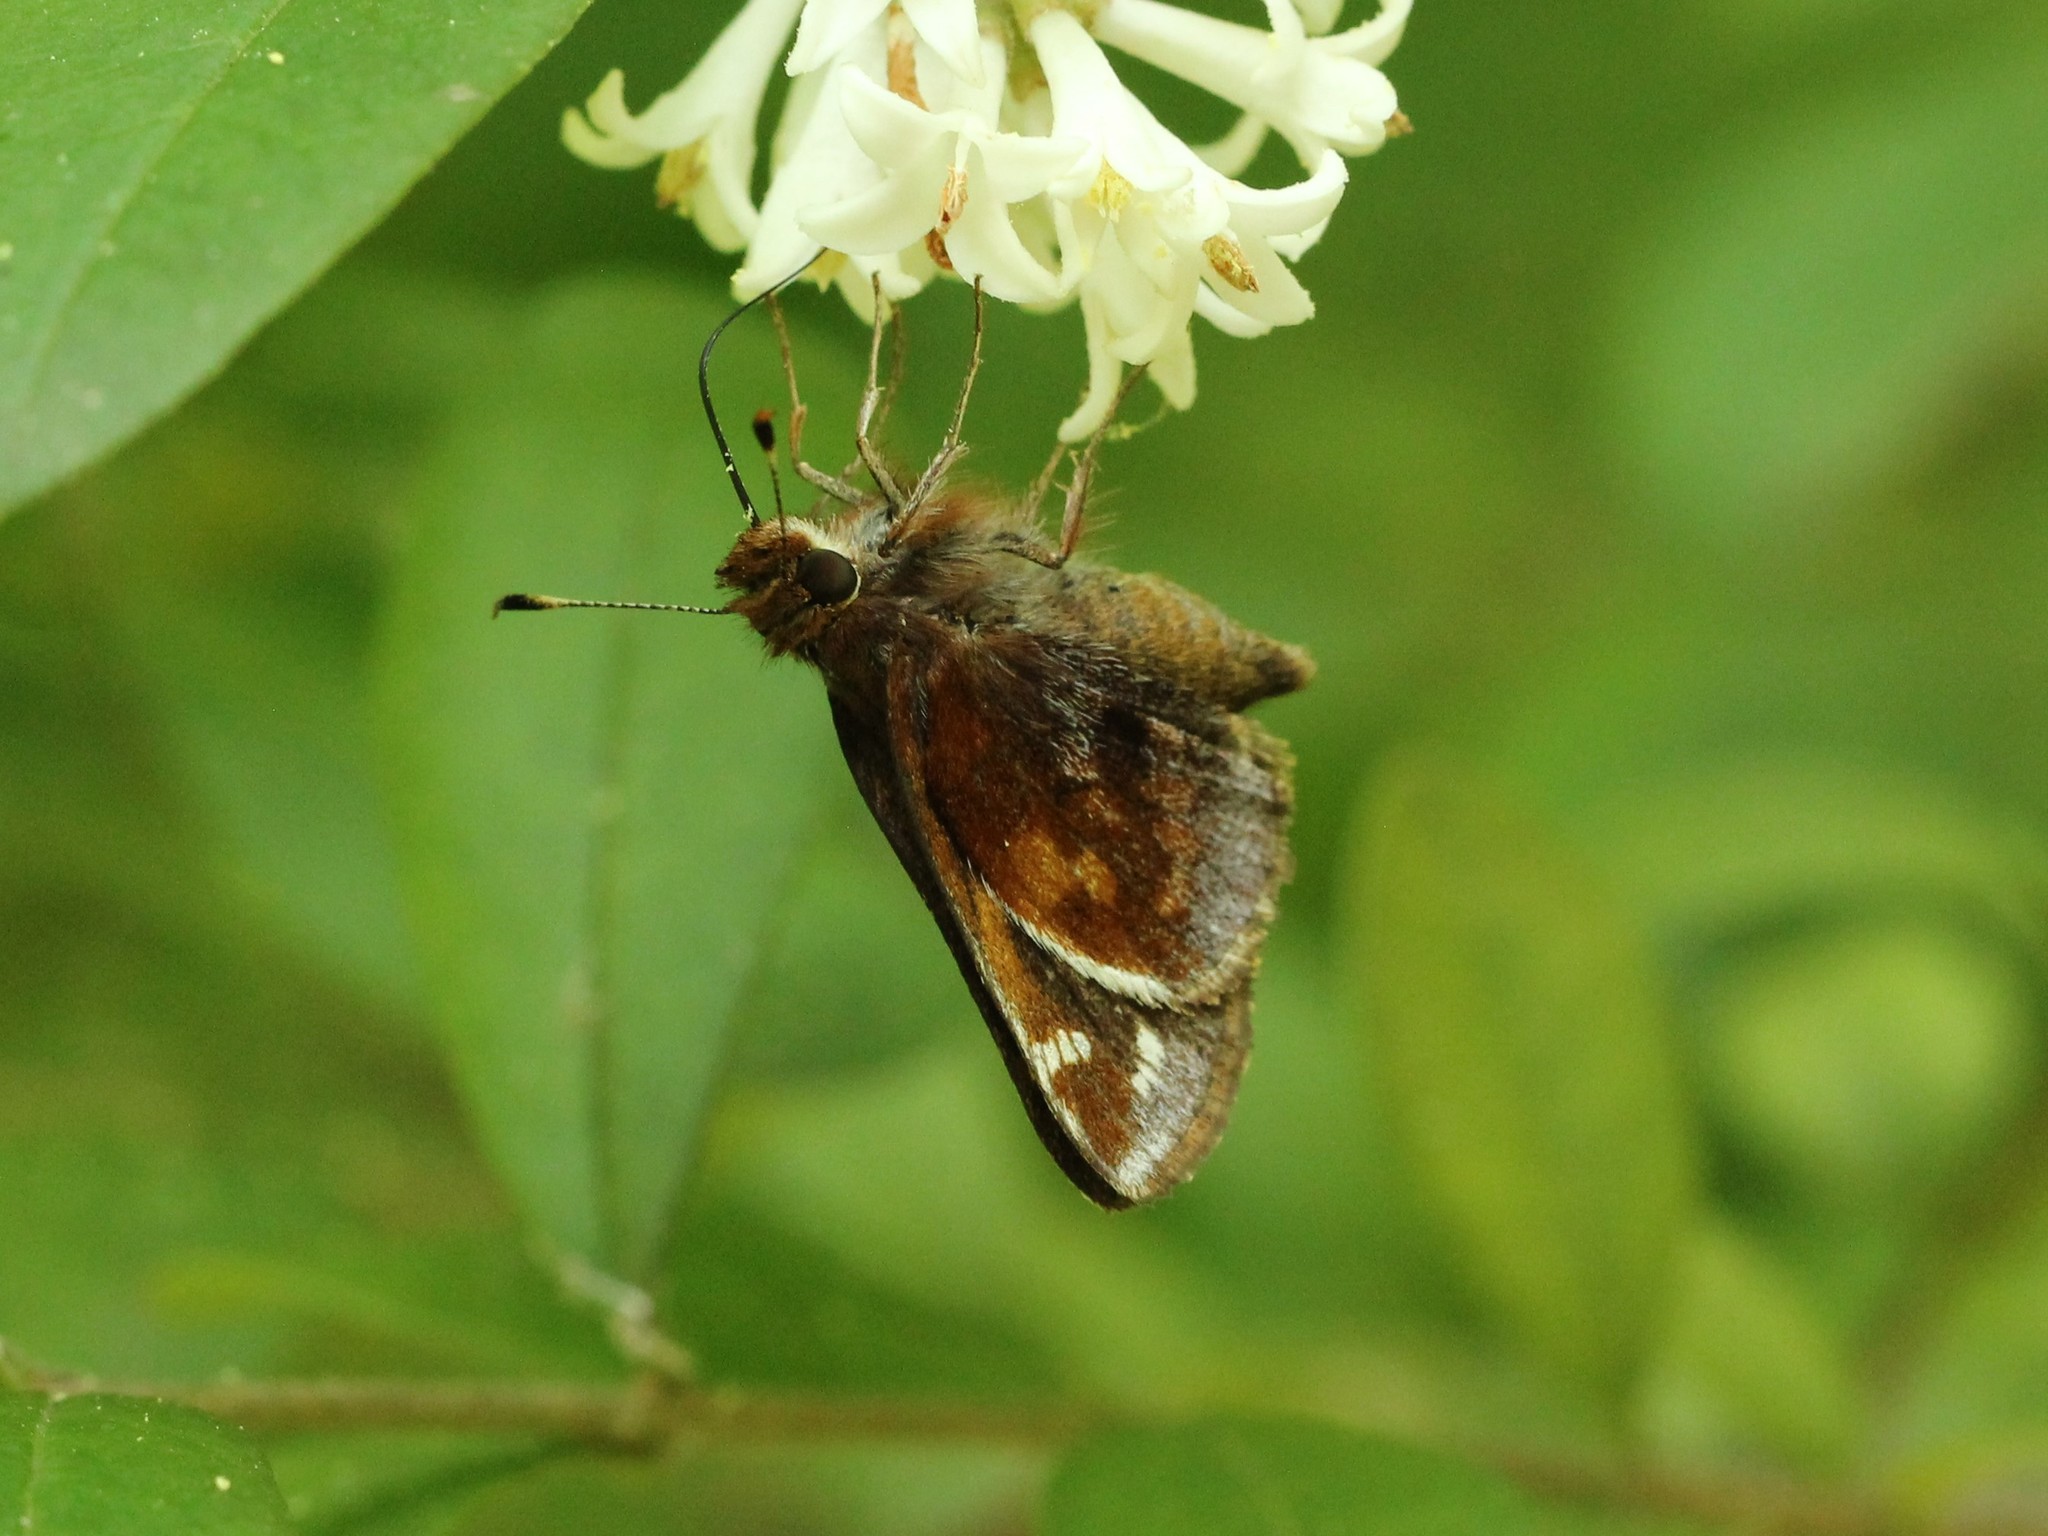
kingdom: Animalia
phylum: Arthropoda
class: Insecta
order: Lepidoptera
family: Hesperiidae
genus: Lon
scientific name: Lon zabulon
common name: Zabulon skipper
